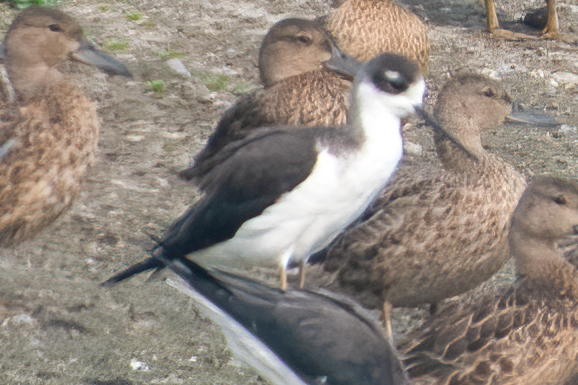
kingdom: Animalia
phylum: Chordata
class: Aves
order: Charadriiformes
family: Recurvirostridae
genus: Himantopus
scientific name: Himantopus mexicanus
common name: Black-necked stilt
